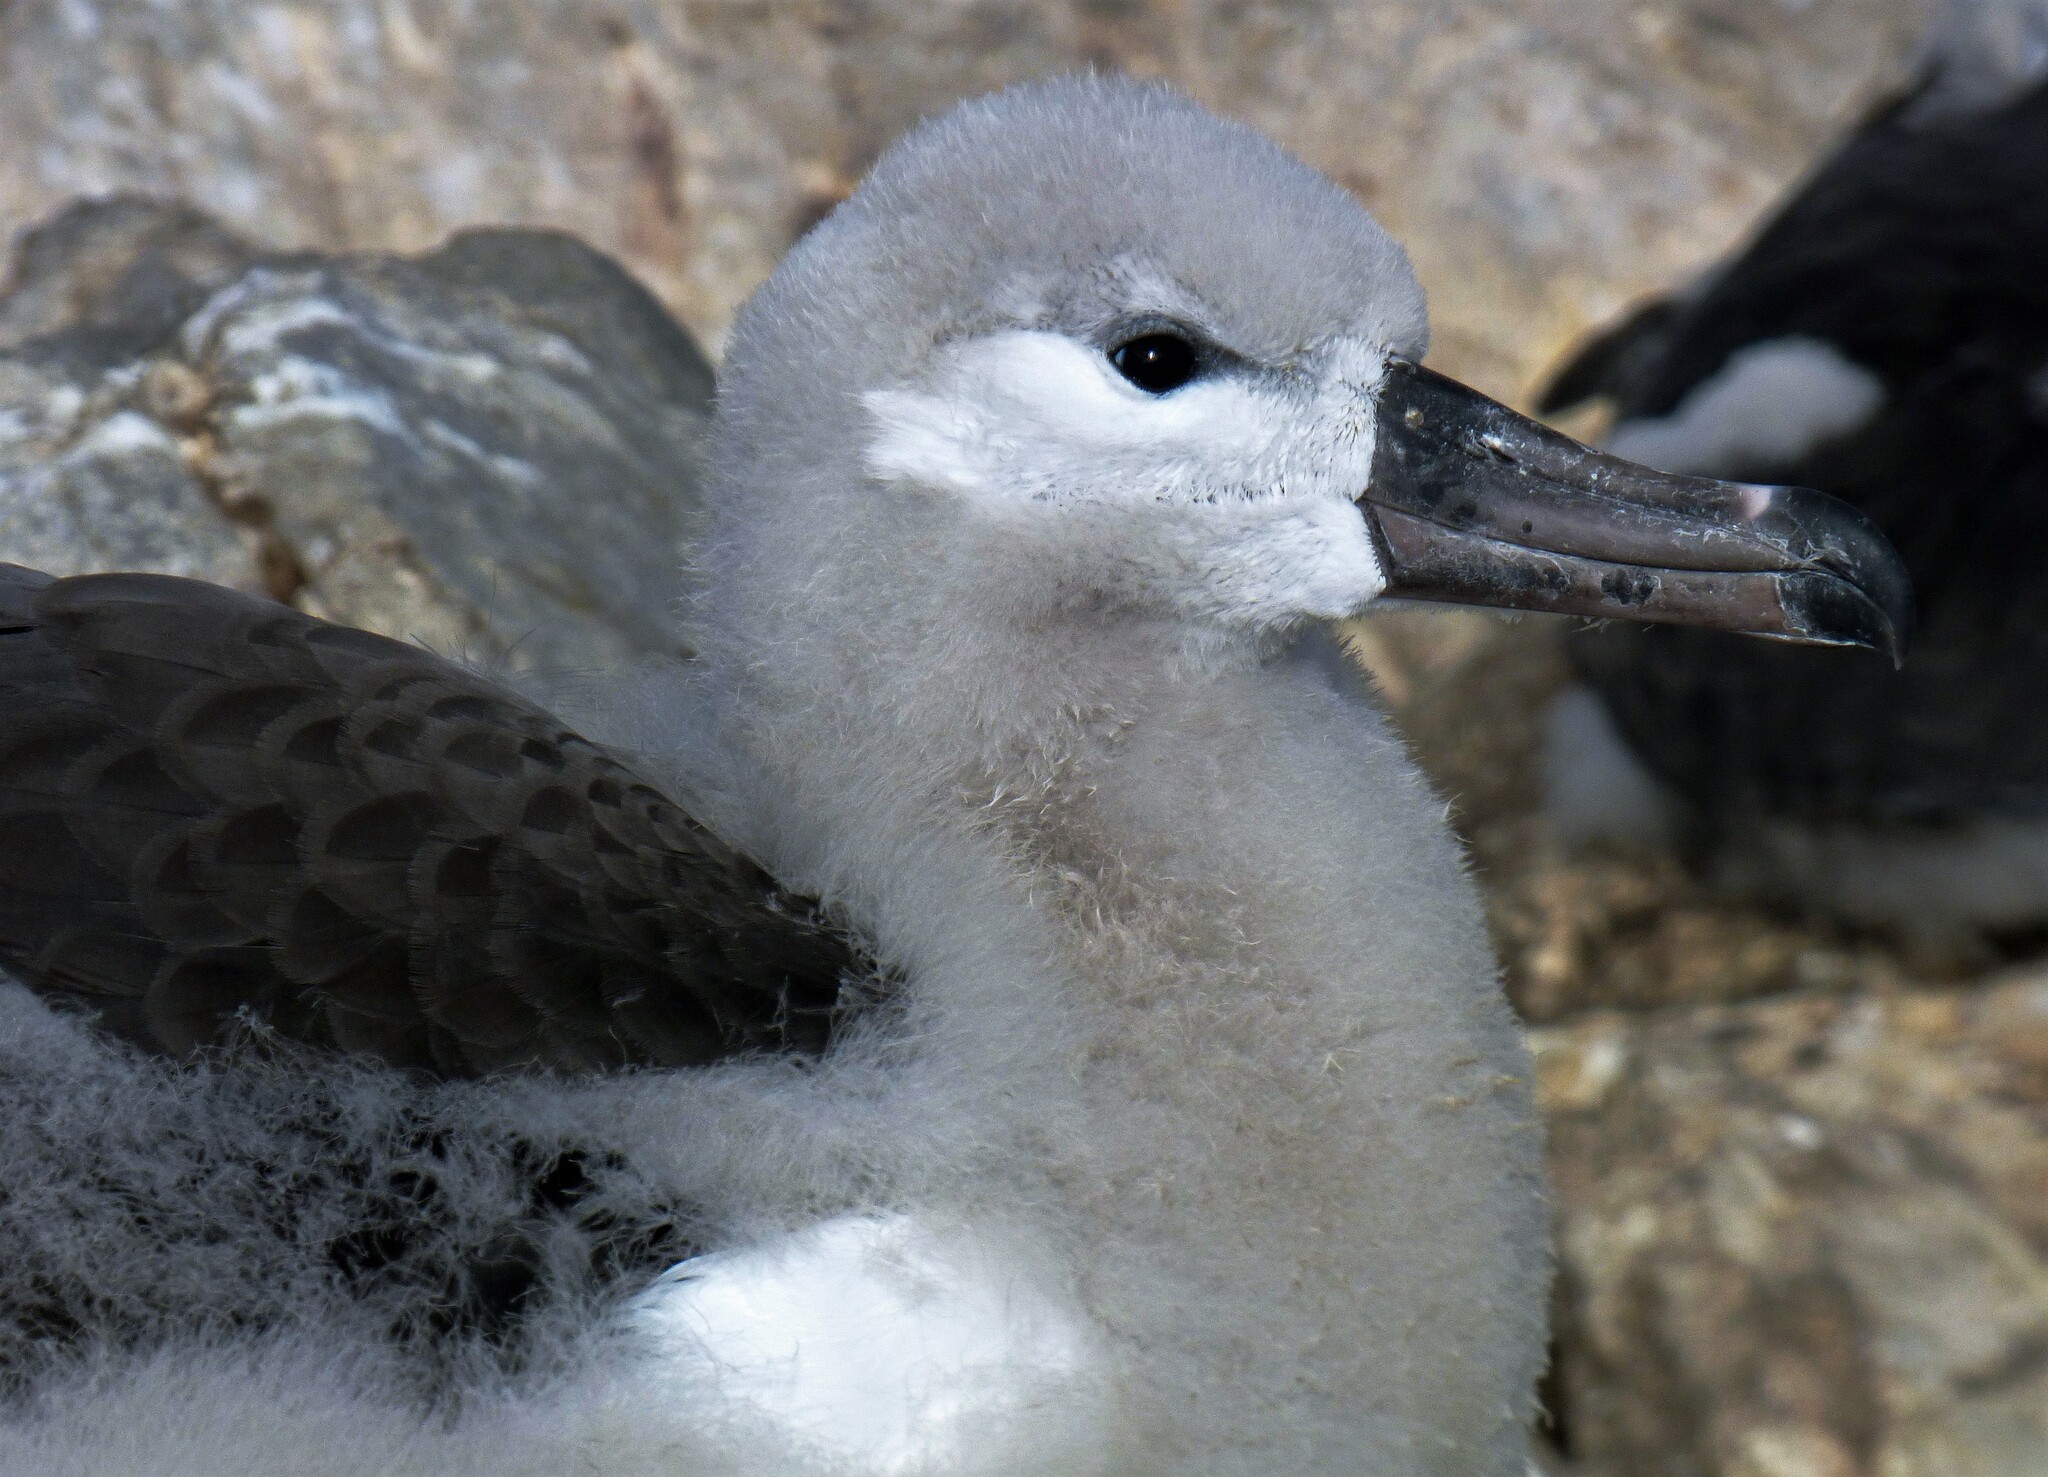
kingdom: Animalia
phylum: Chordata
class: Aves
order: Procellariiformes
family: Diomedeidae
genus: Thalassarche
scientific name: Thalassarche melanophris
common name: Black-browed albatross
